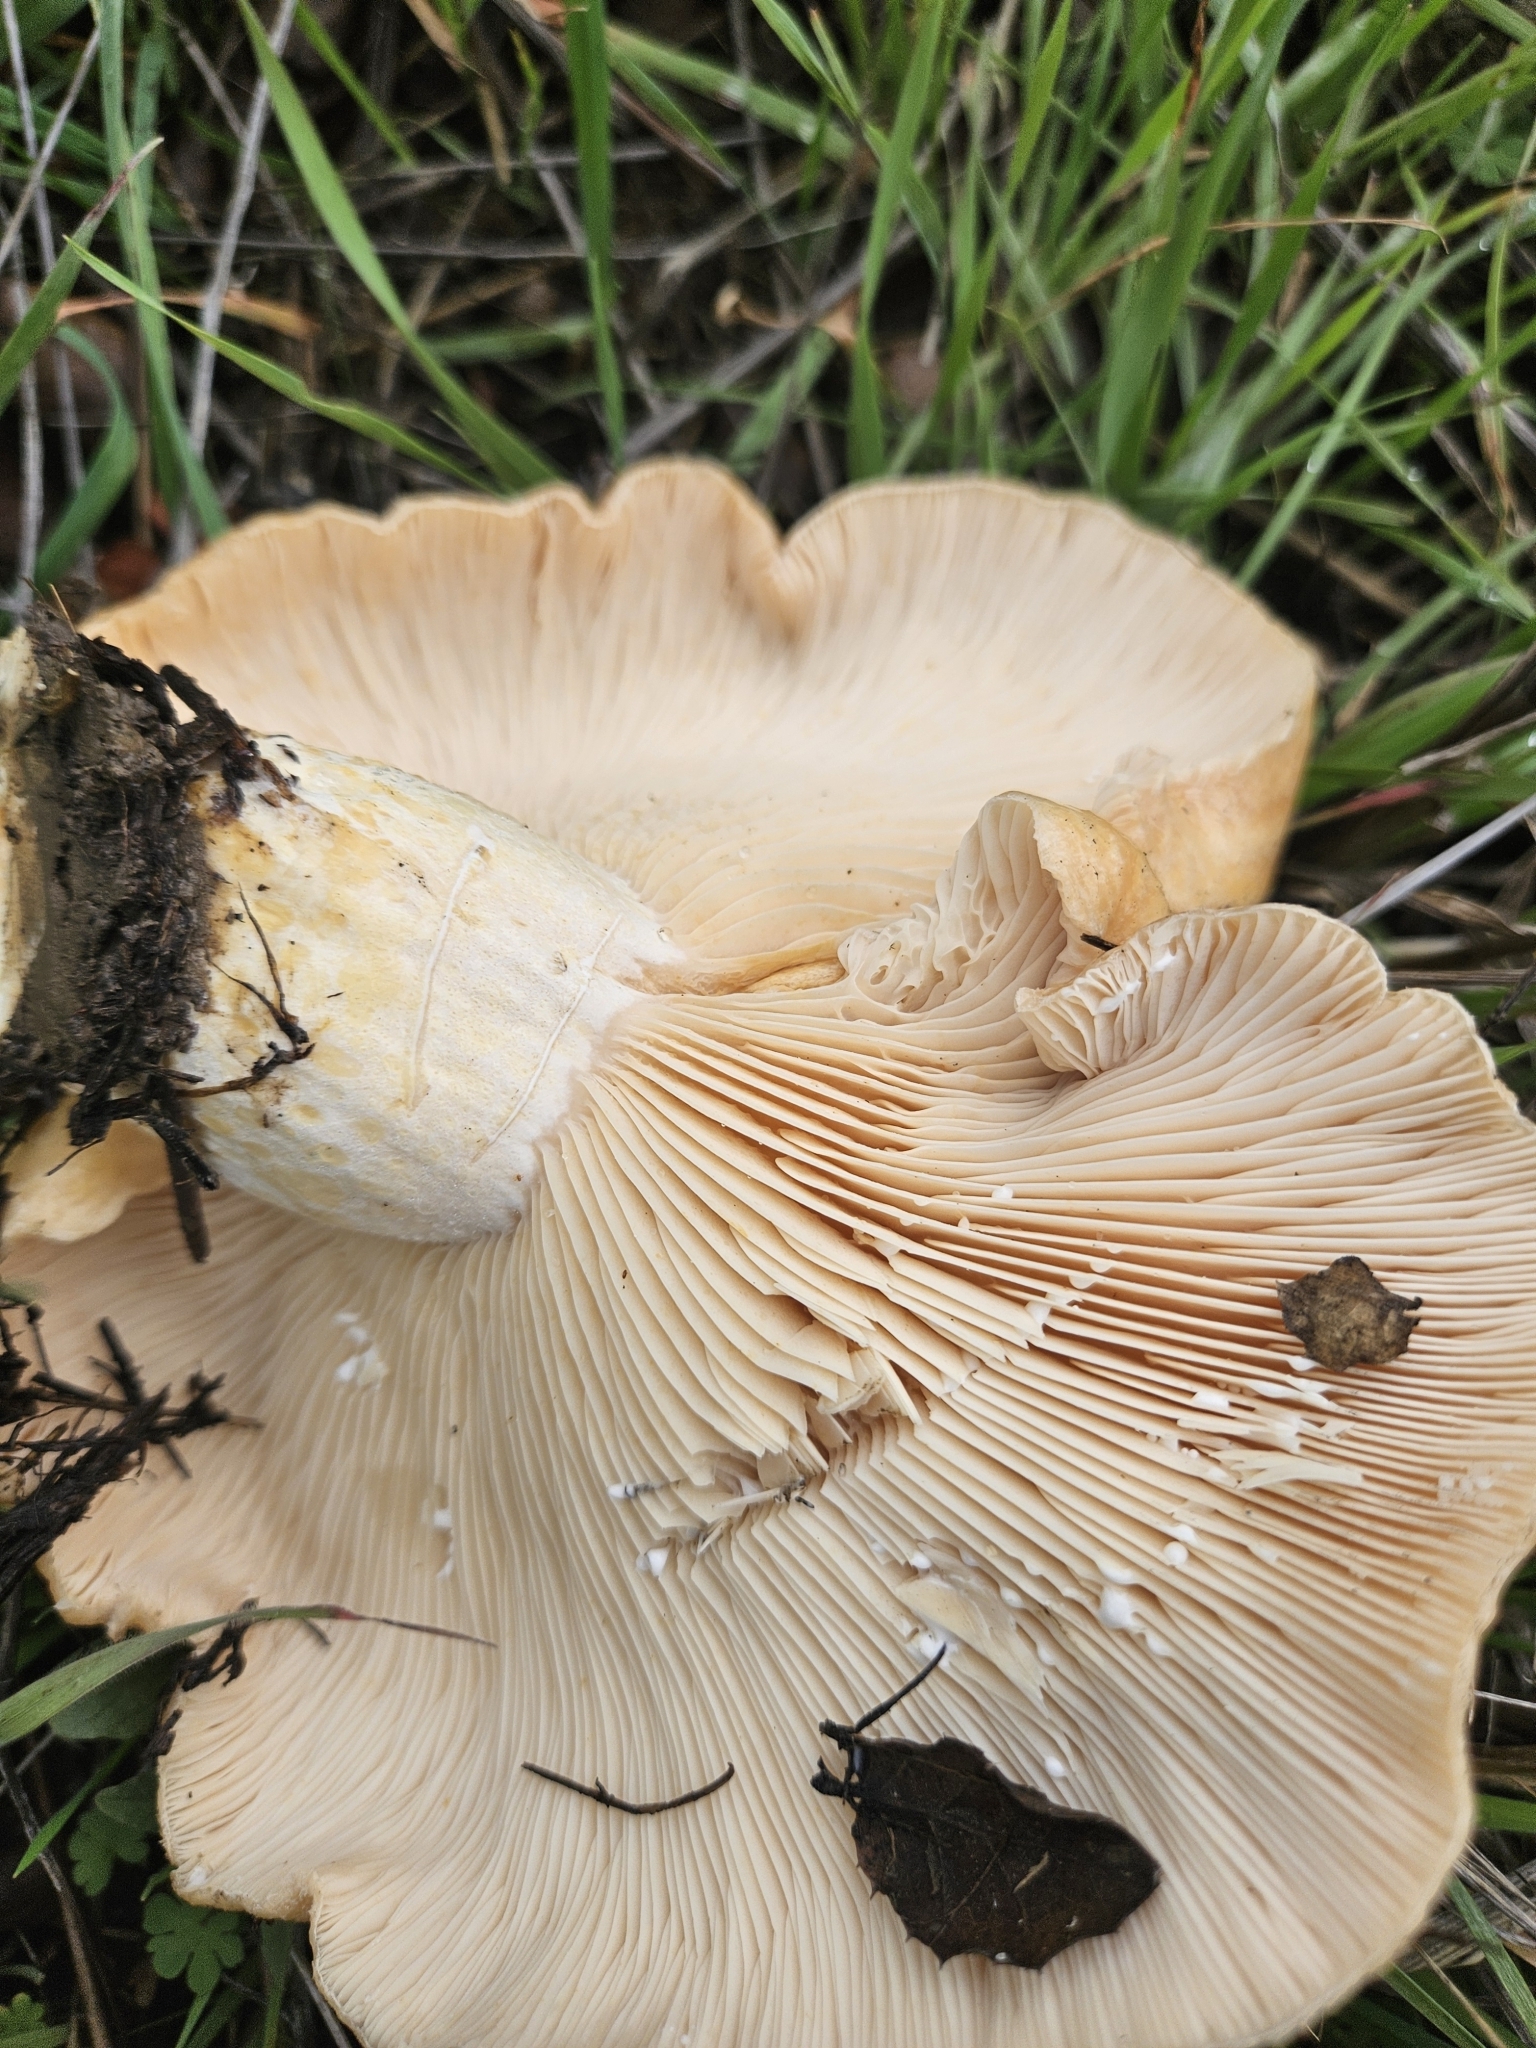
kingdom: Fungi
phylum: Basidiomycota
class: Agaricomycetes
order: Russulales
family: Russulaceae
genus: Lactarius
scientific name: Lactarius alnicola
